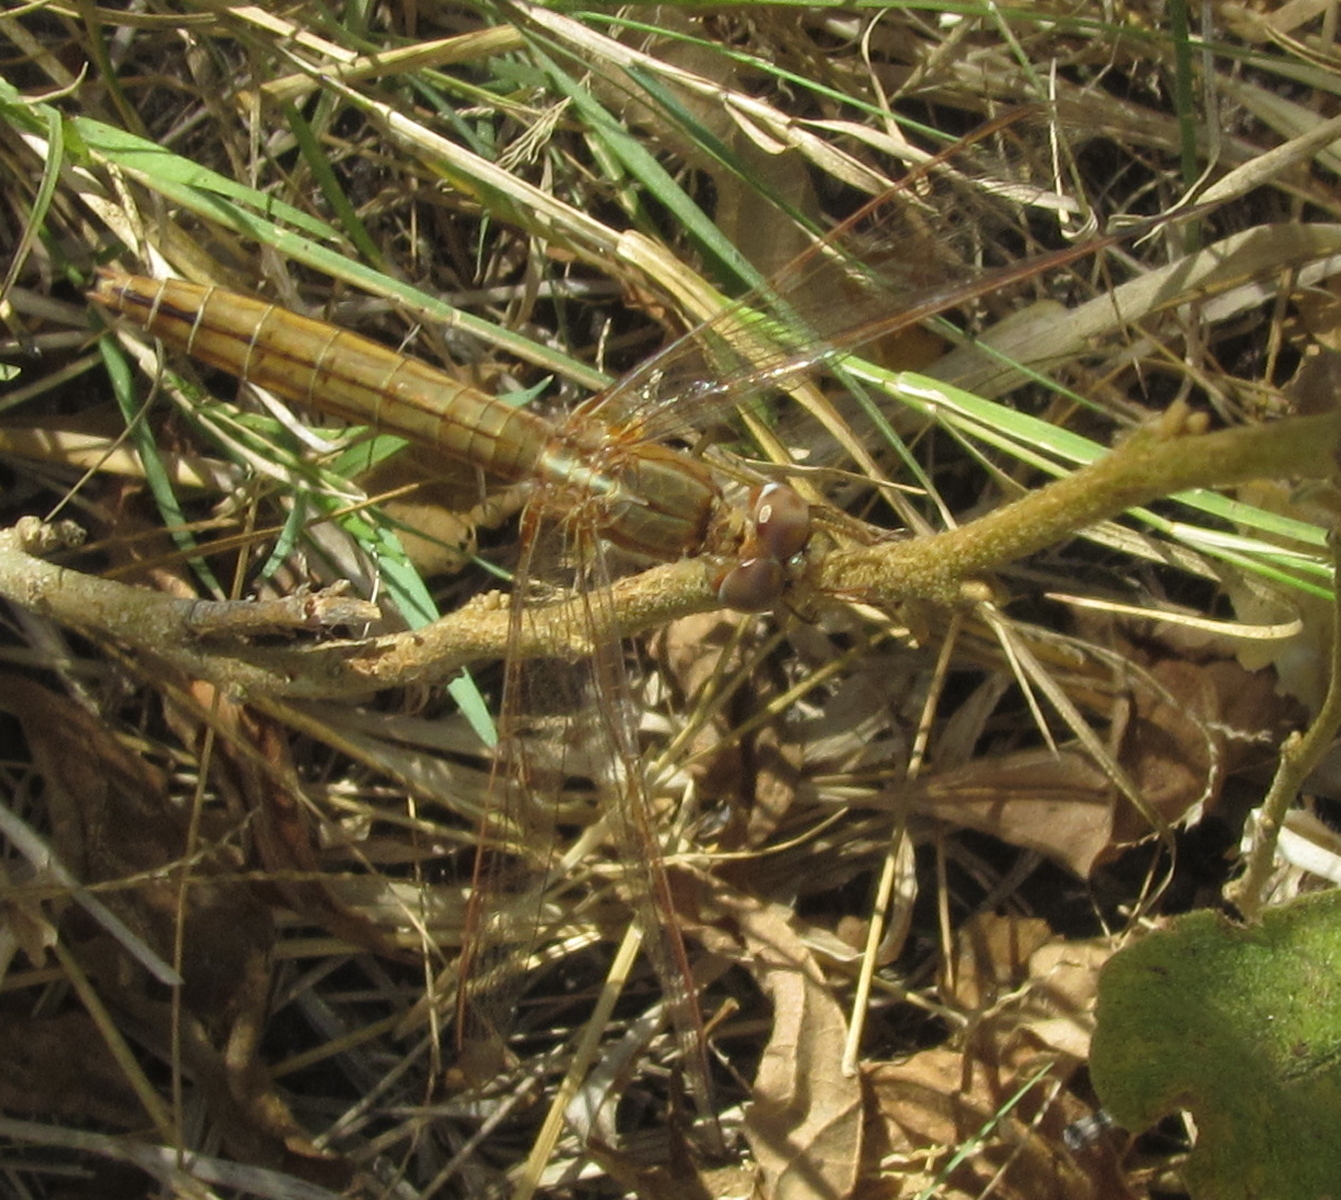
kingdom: Animalia
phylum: Arthropoda
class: Insecta
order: Odonata
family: Libellulidae
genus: Crocothemis
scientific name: Crocothemis erythraea
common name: Scarlet dragonfly
